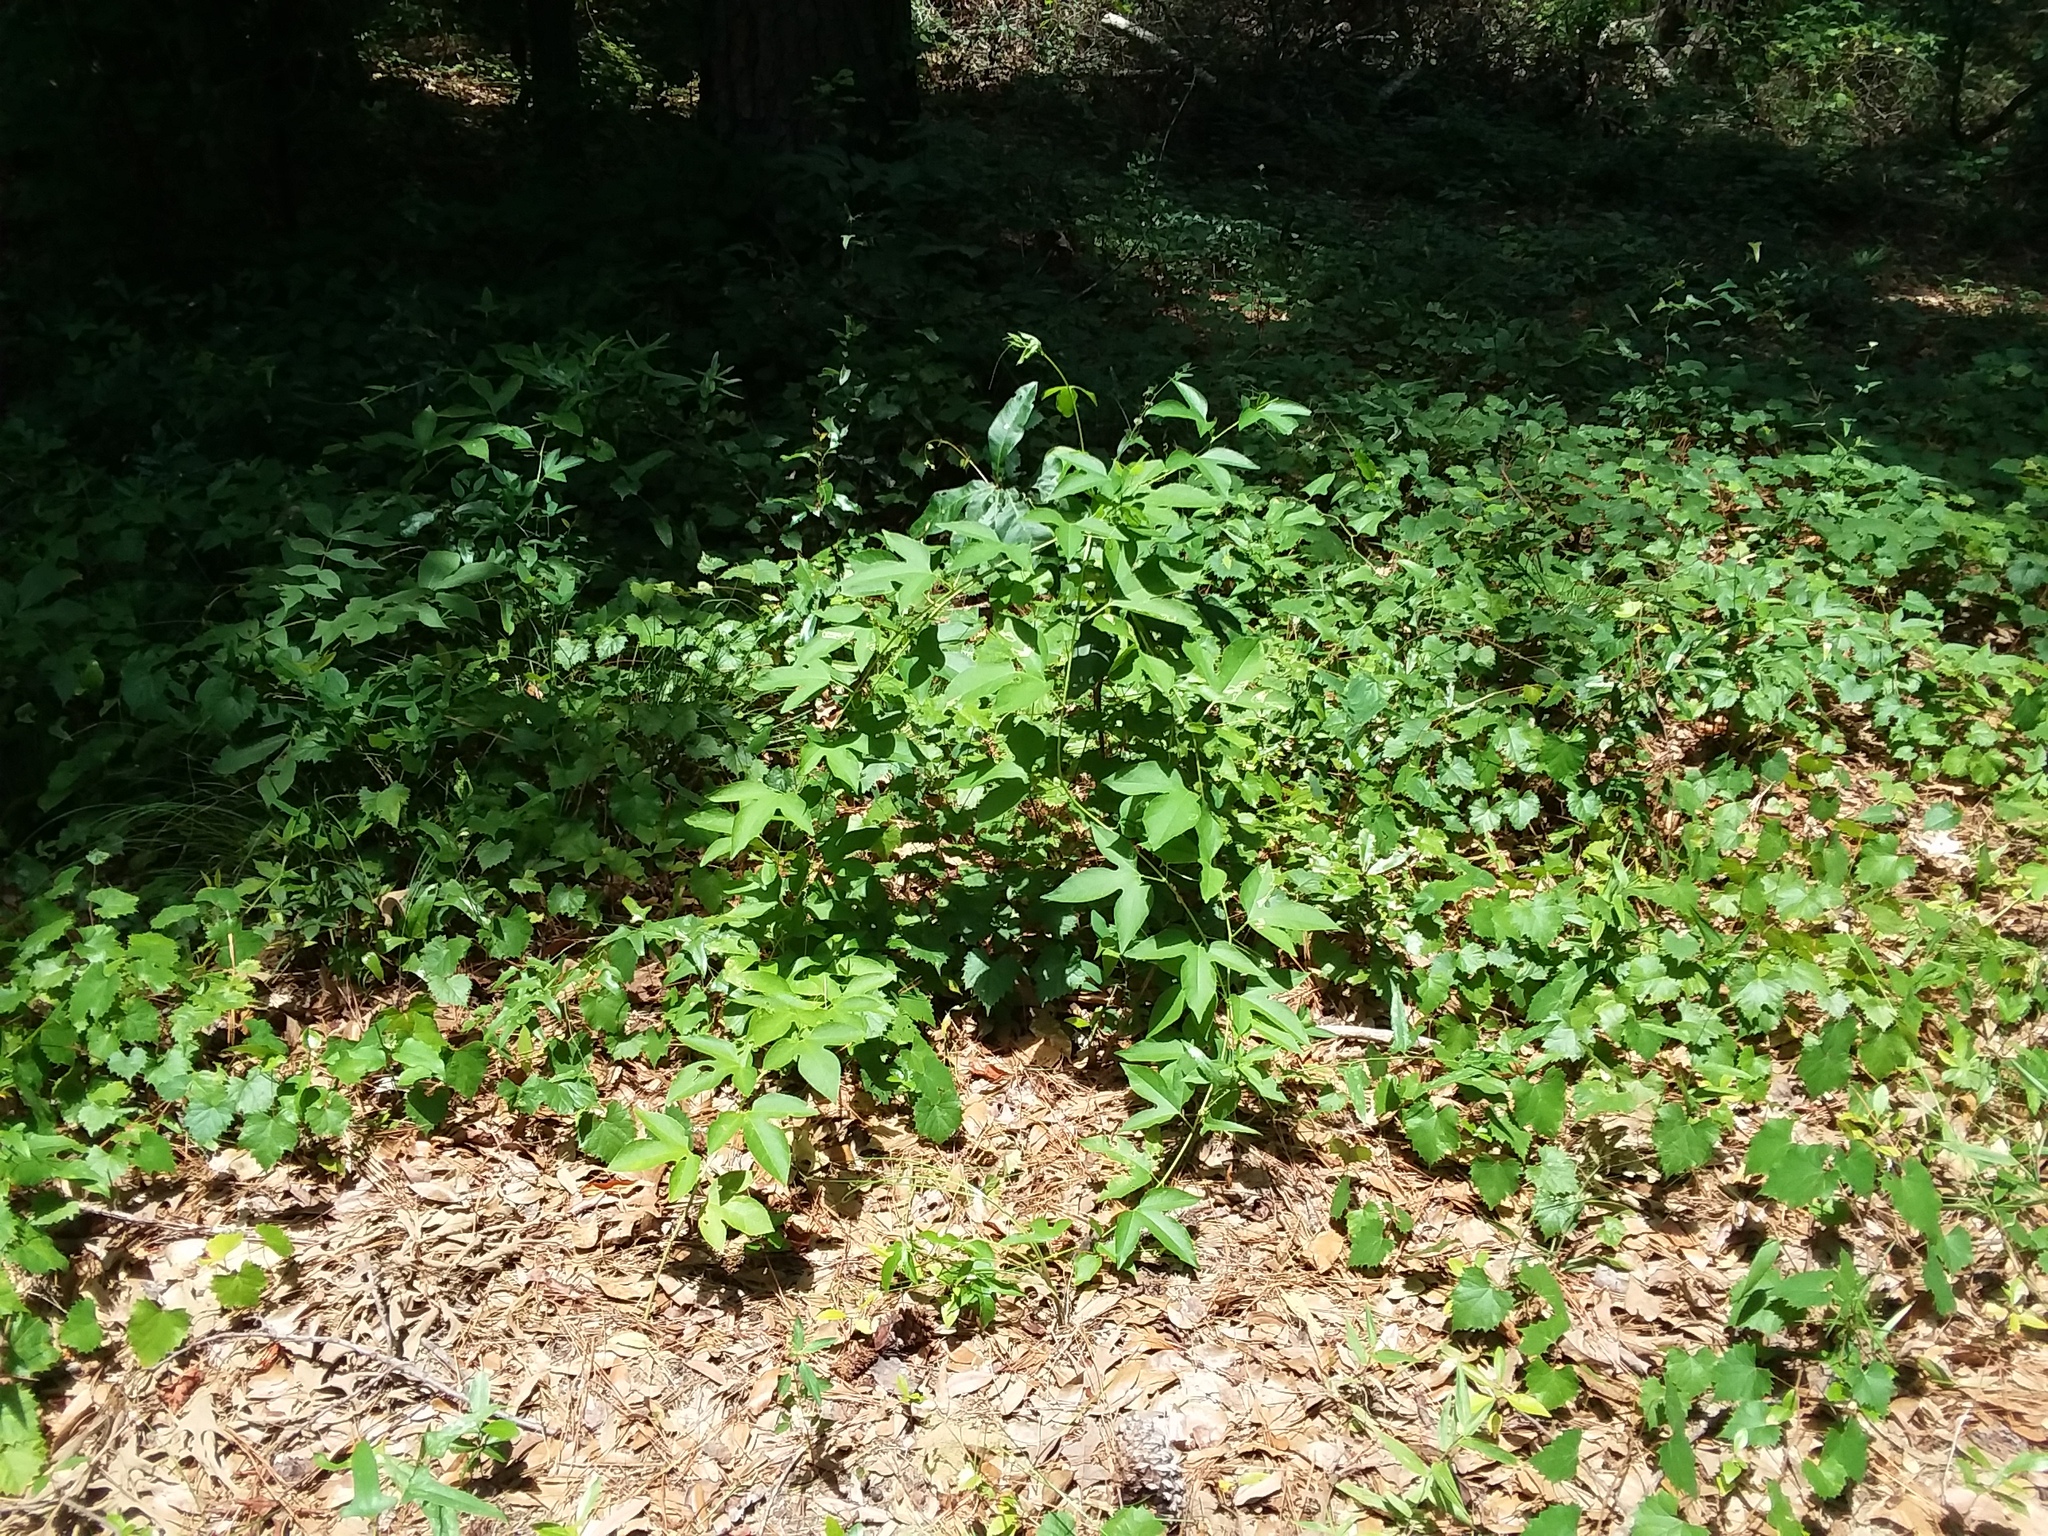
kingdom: Plantae
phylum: Tracheophyta
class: Magnoliopsida
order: Malpighiales
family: Passifloraceae
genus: Passiflora
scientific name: Passiflora incarnata
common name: Apricot-vine
